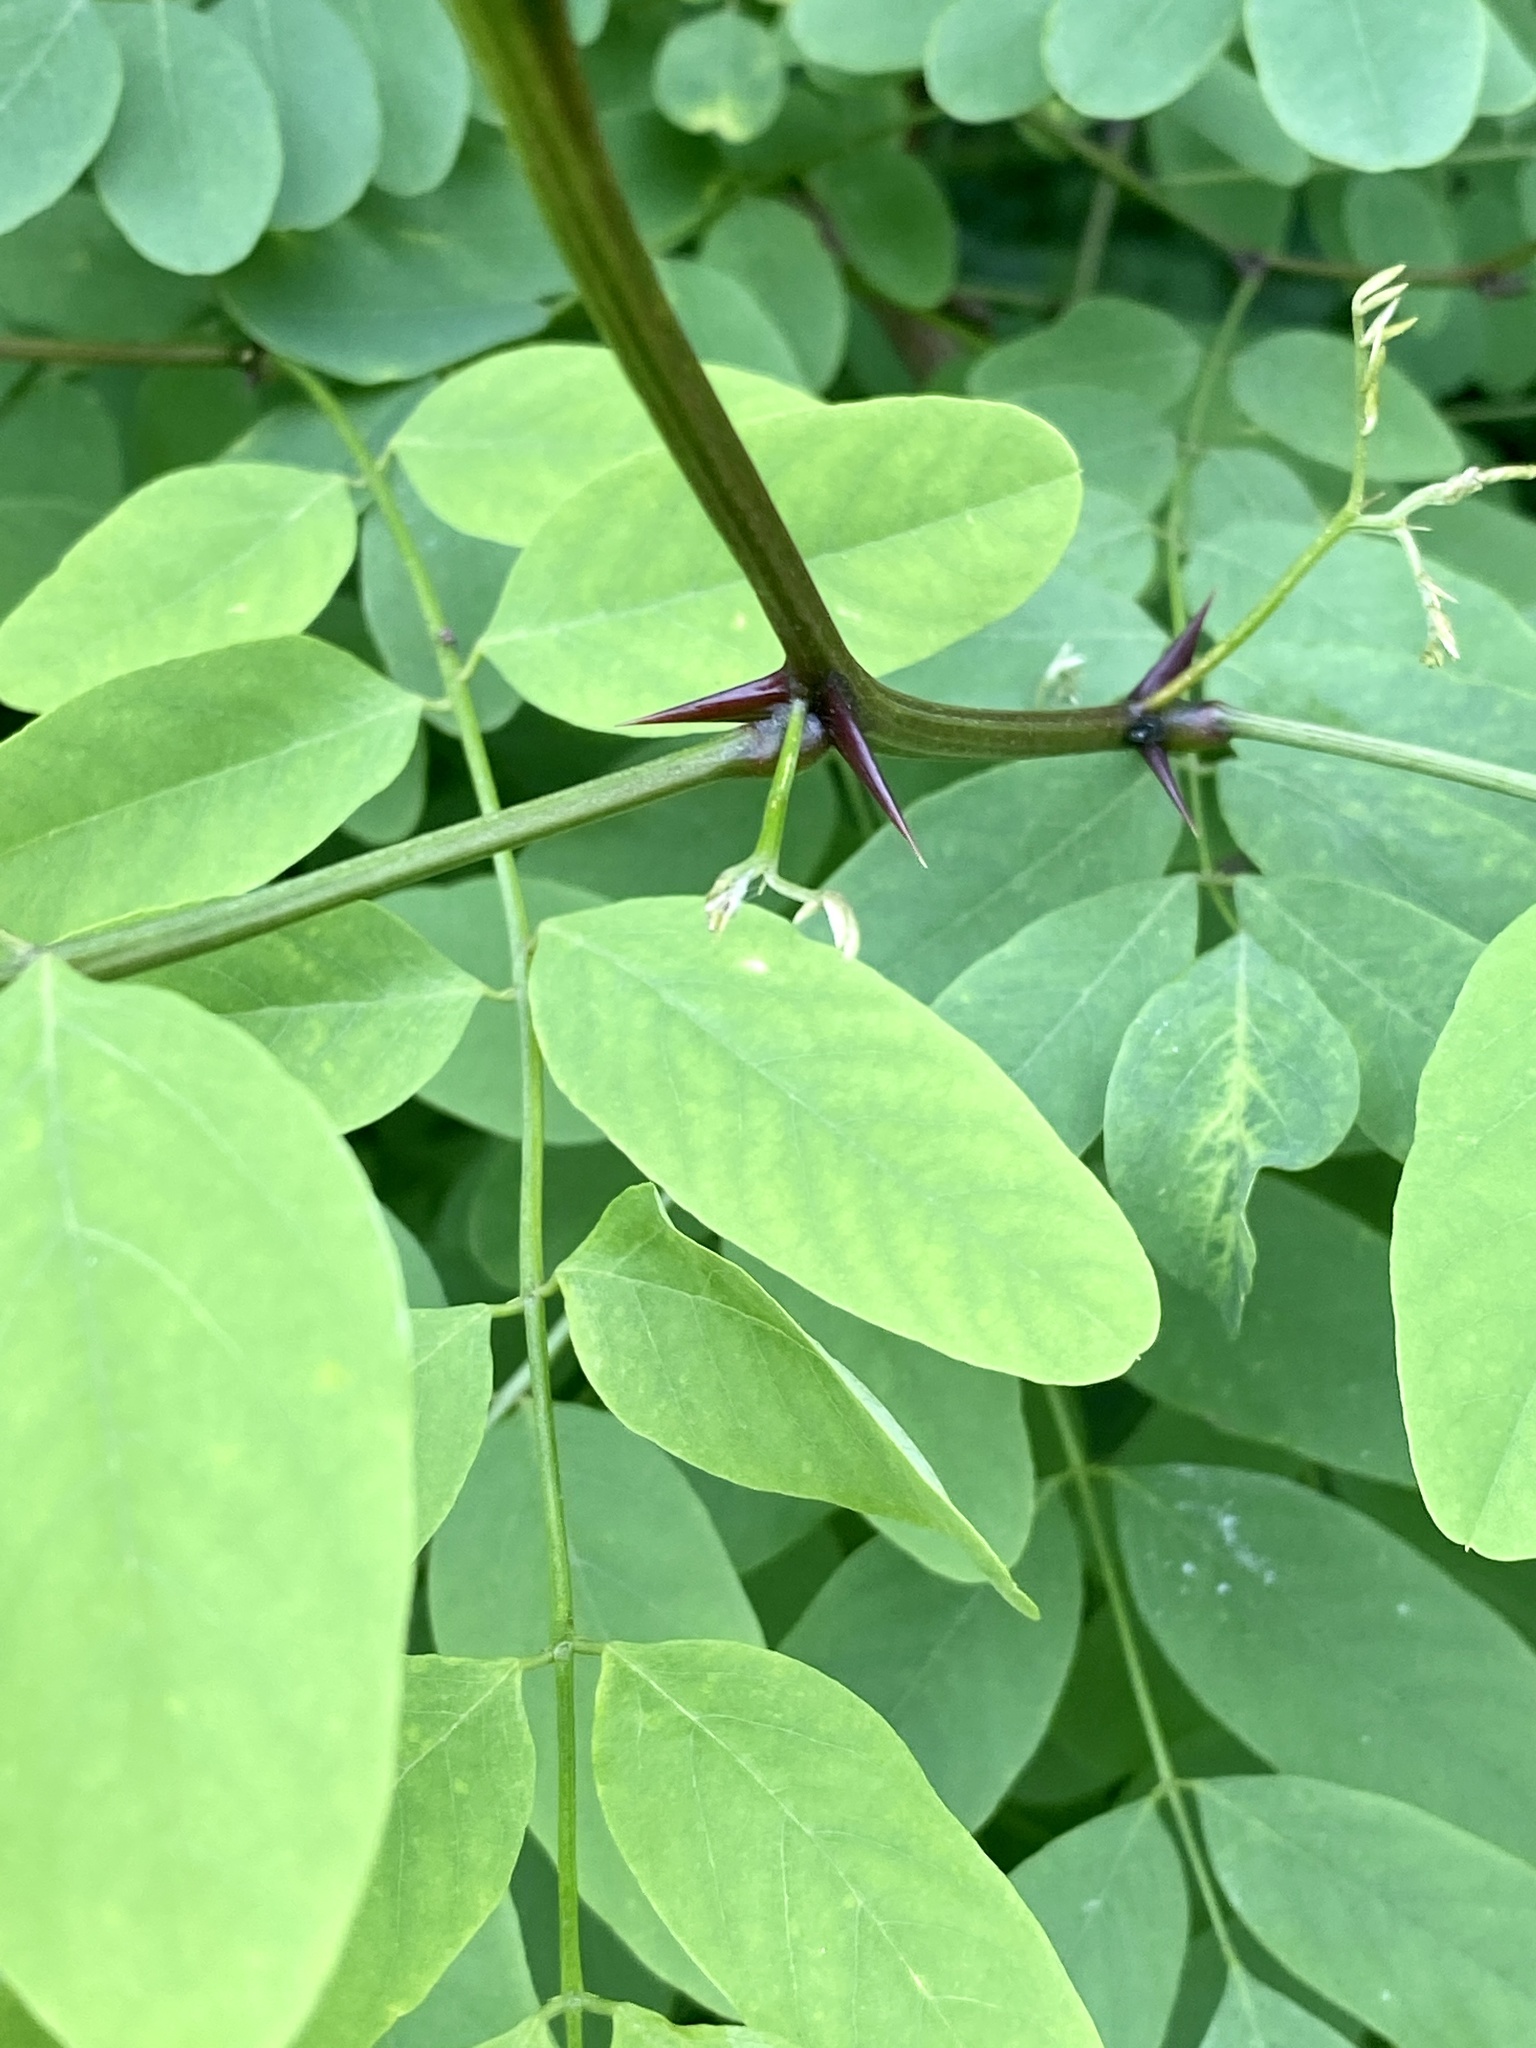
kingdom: Plantae
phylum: Tracheophyta
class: Magnoliopsida
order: Fabales
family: Fabaceae
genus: Robinia
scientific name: Robinia pseudoacacia
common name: Black locust
